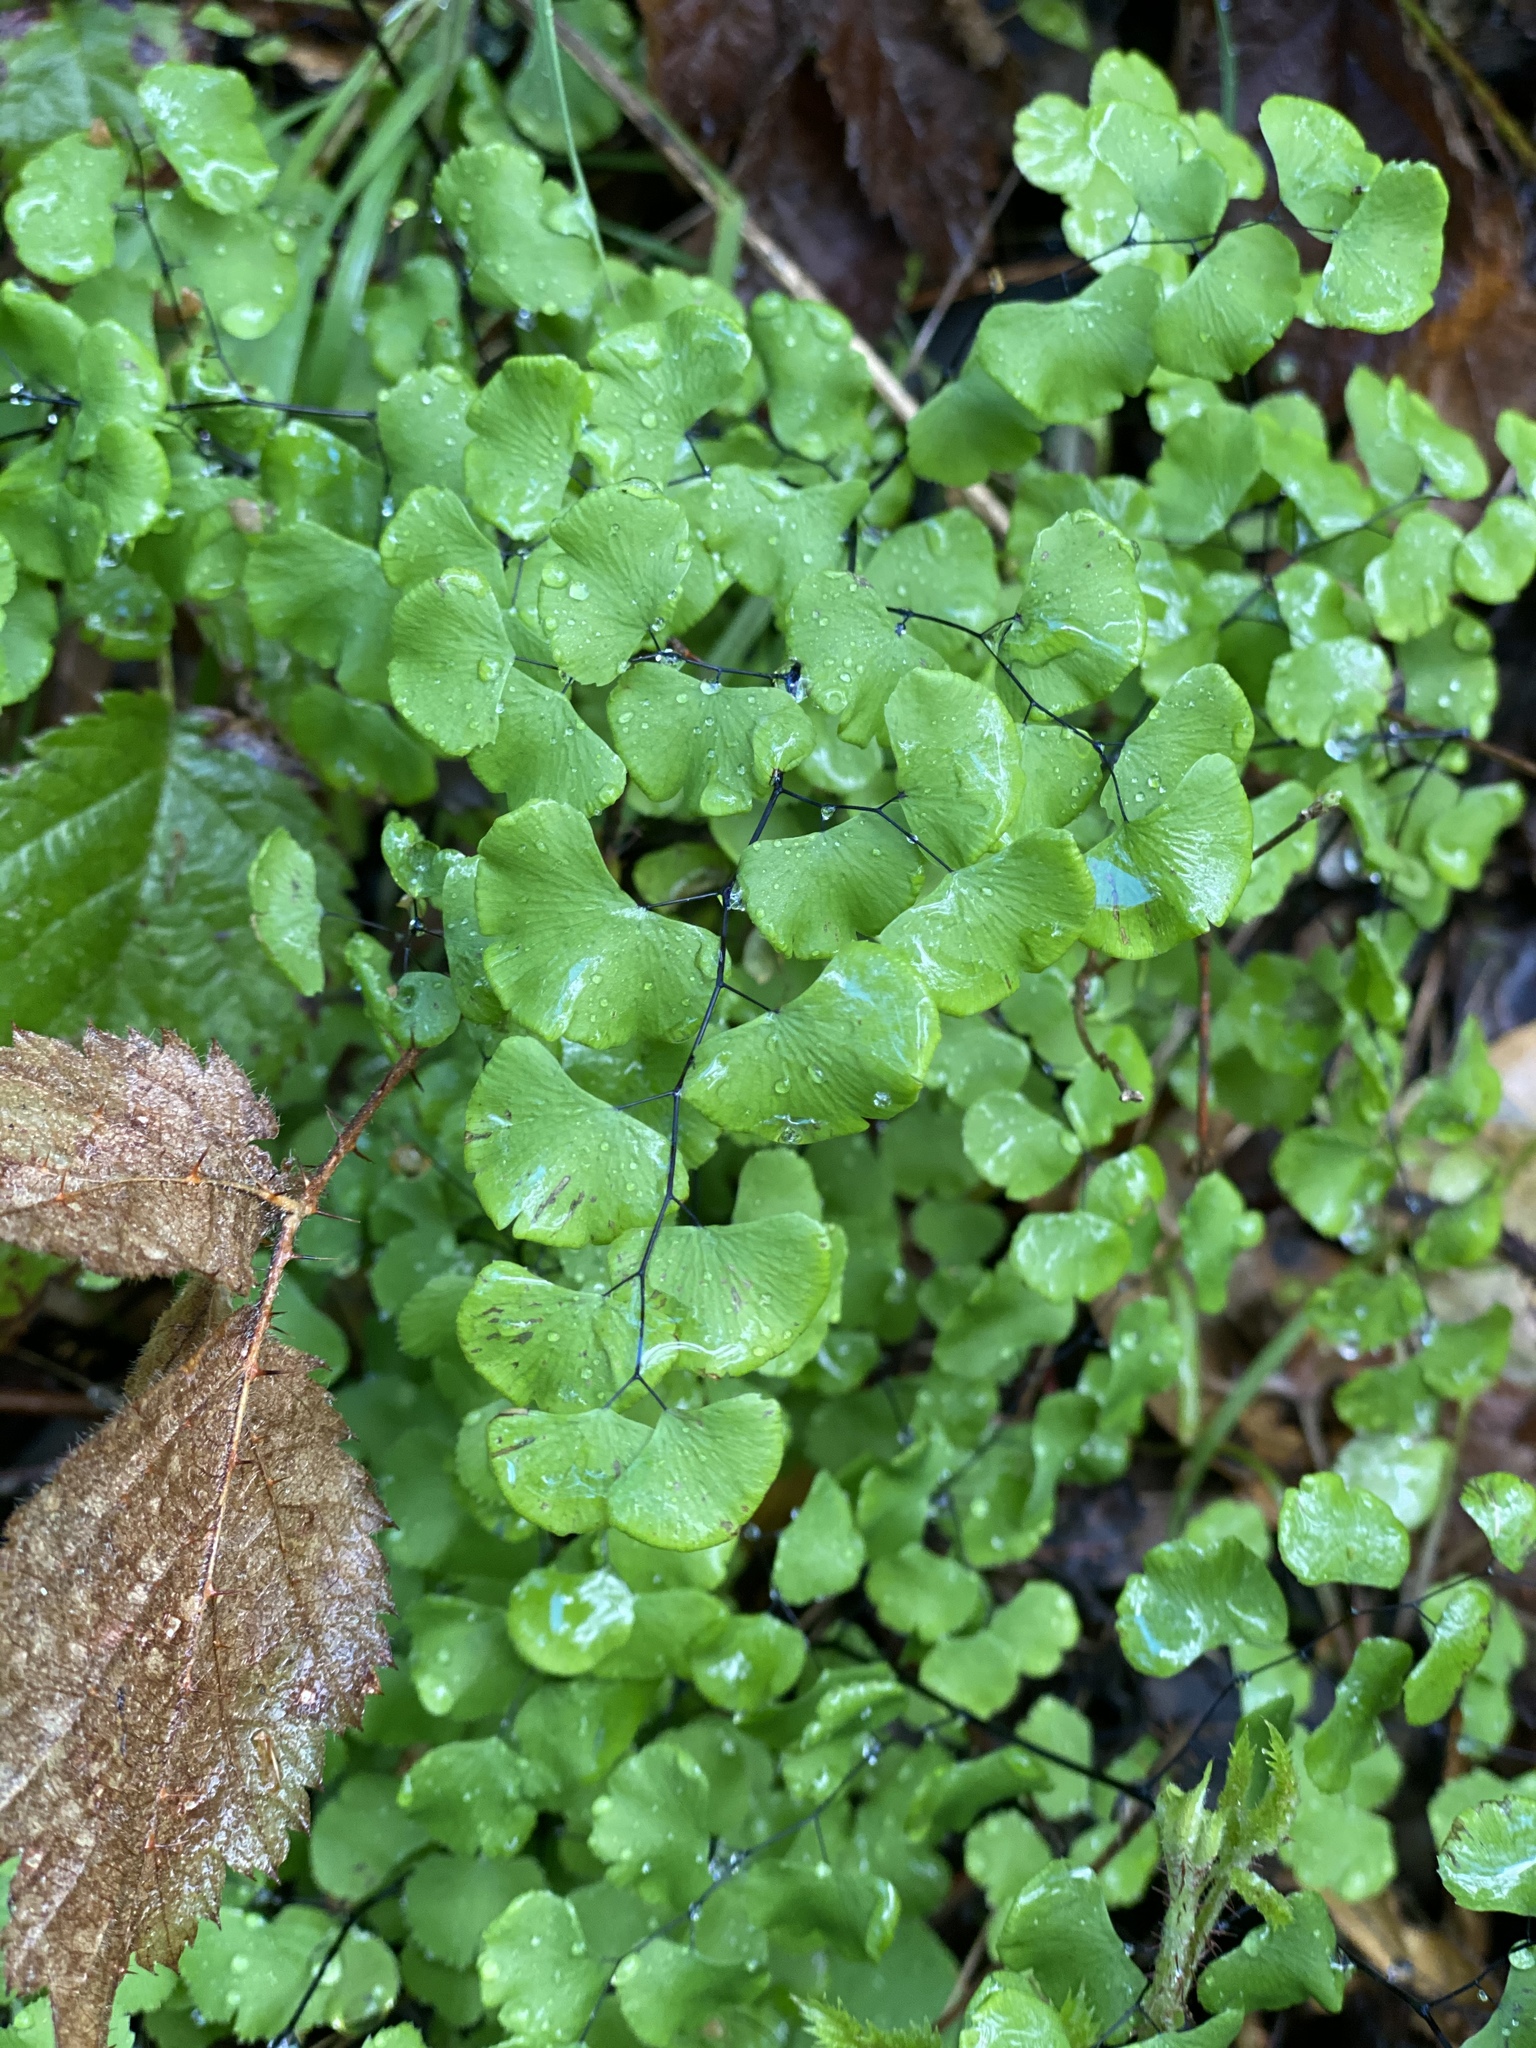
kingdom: Plantae
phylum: Tracheophyta
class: Polypodiopsida
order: Polypodiales
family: Pteridaceae
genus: Adiantum
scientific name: Adiantum jordanii
